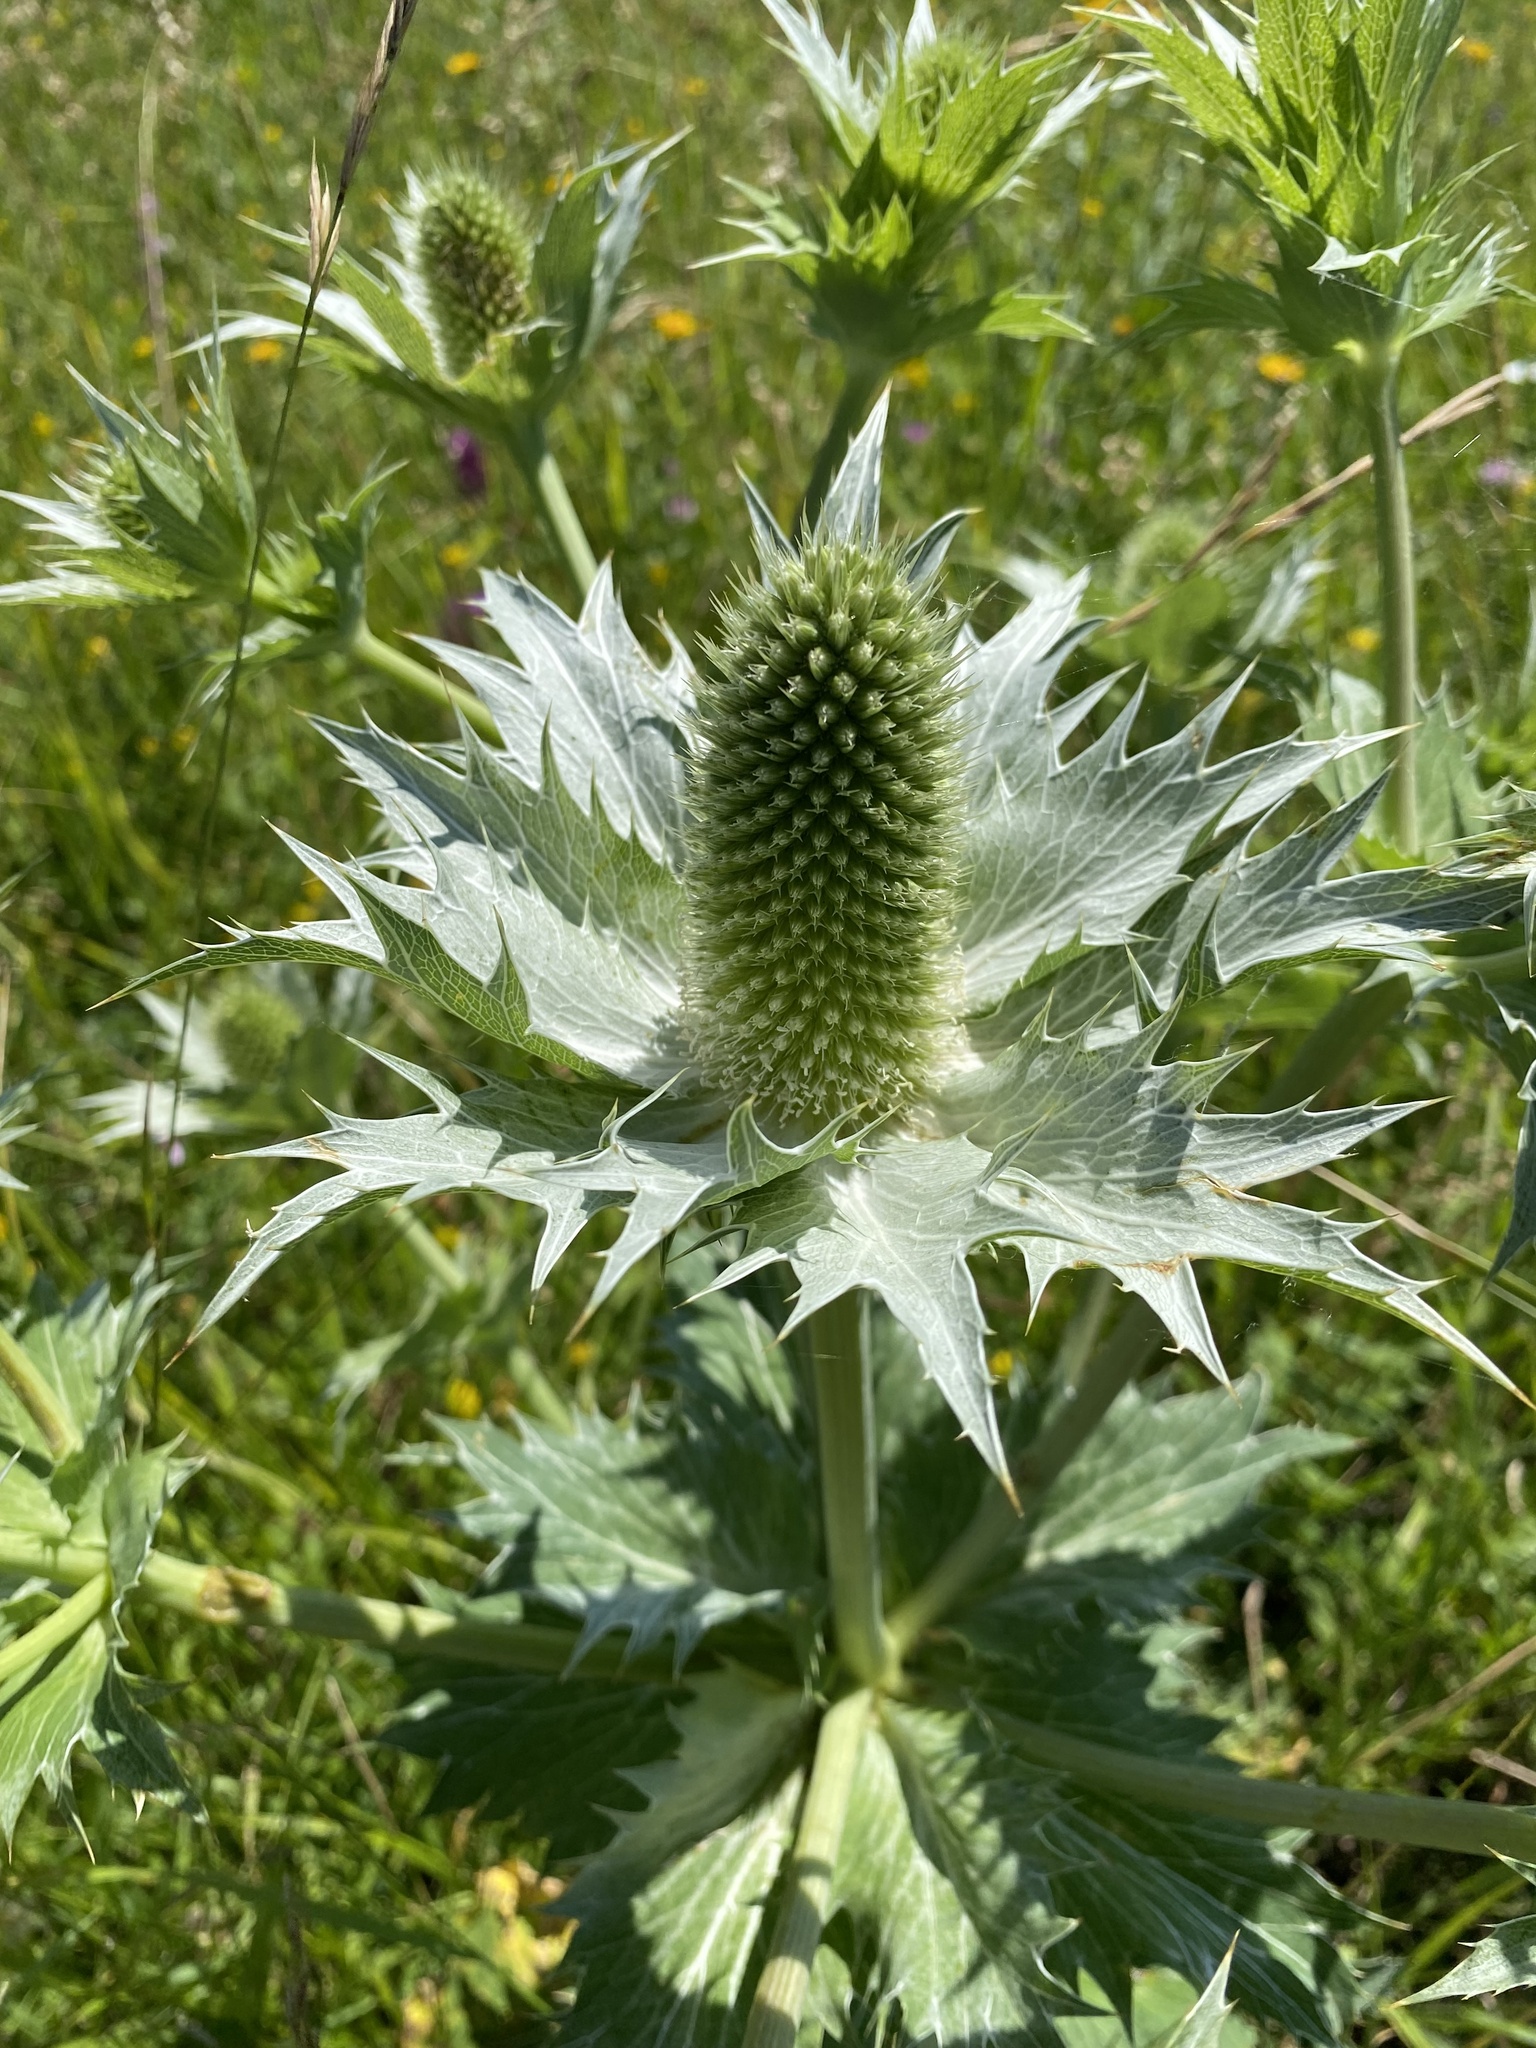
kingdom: Plantae
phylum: Tracheophyta
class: Magnoliopsida
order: Apiales
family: Apiaceae
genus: Eryngium
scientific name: Eryngium giganteum
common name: Tall eryngo
